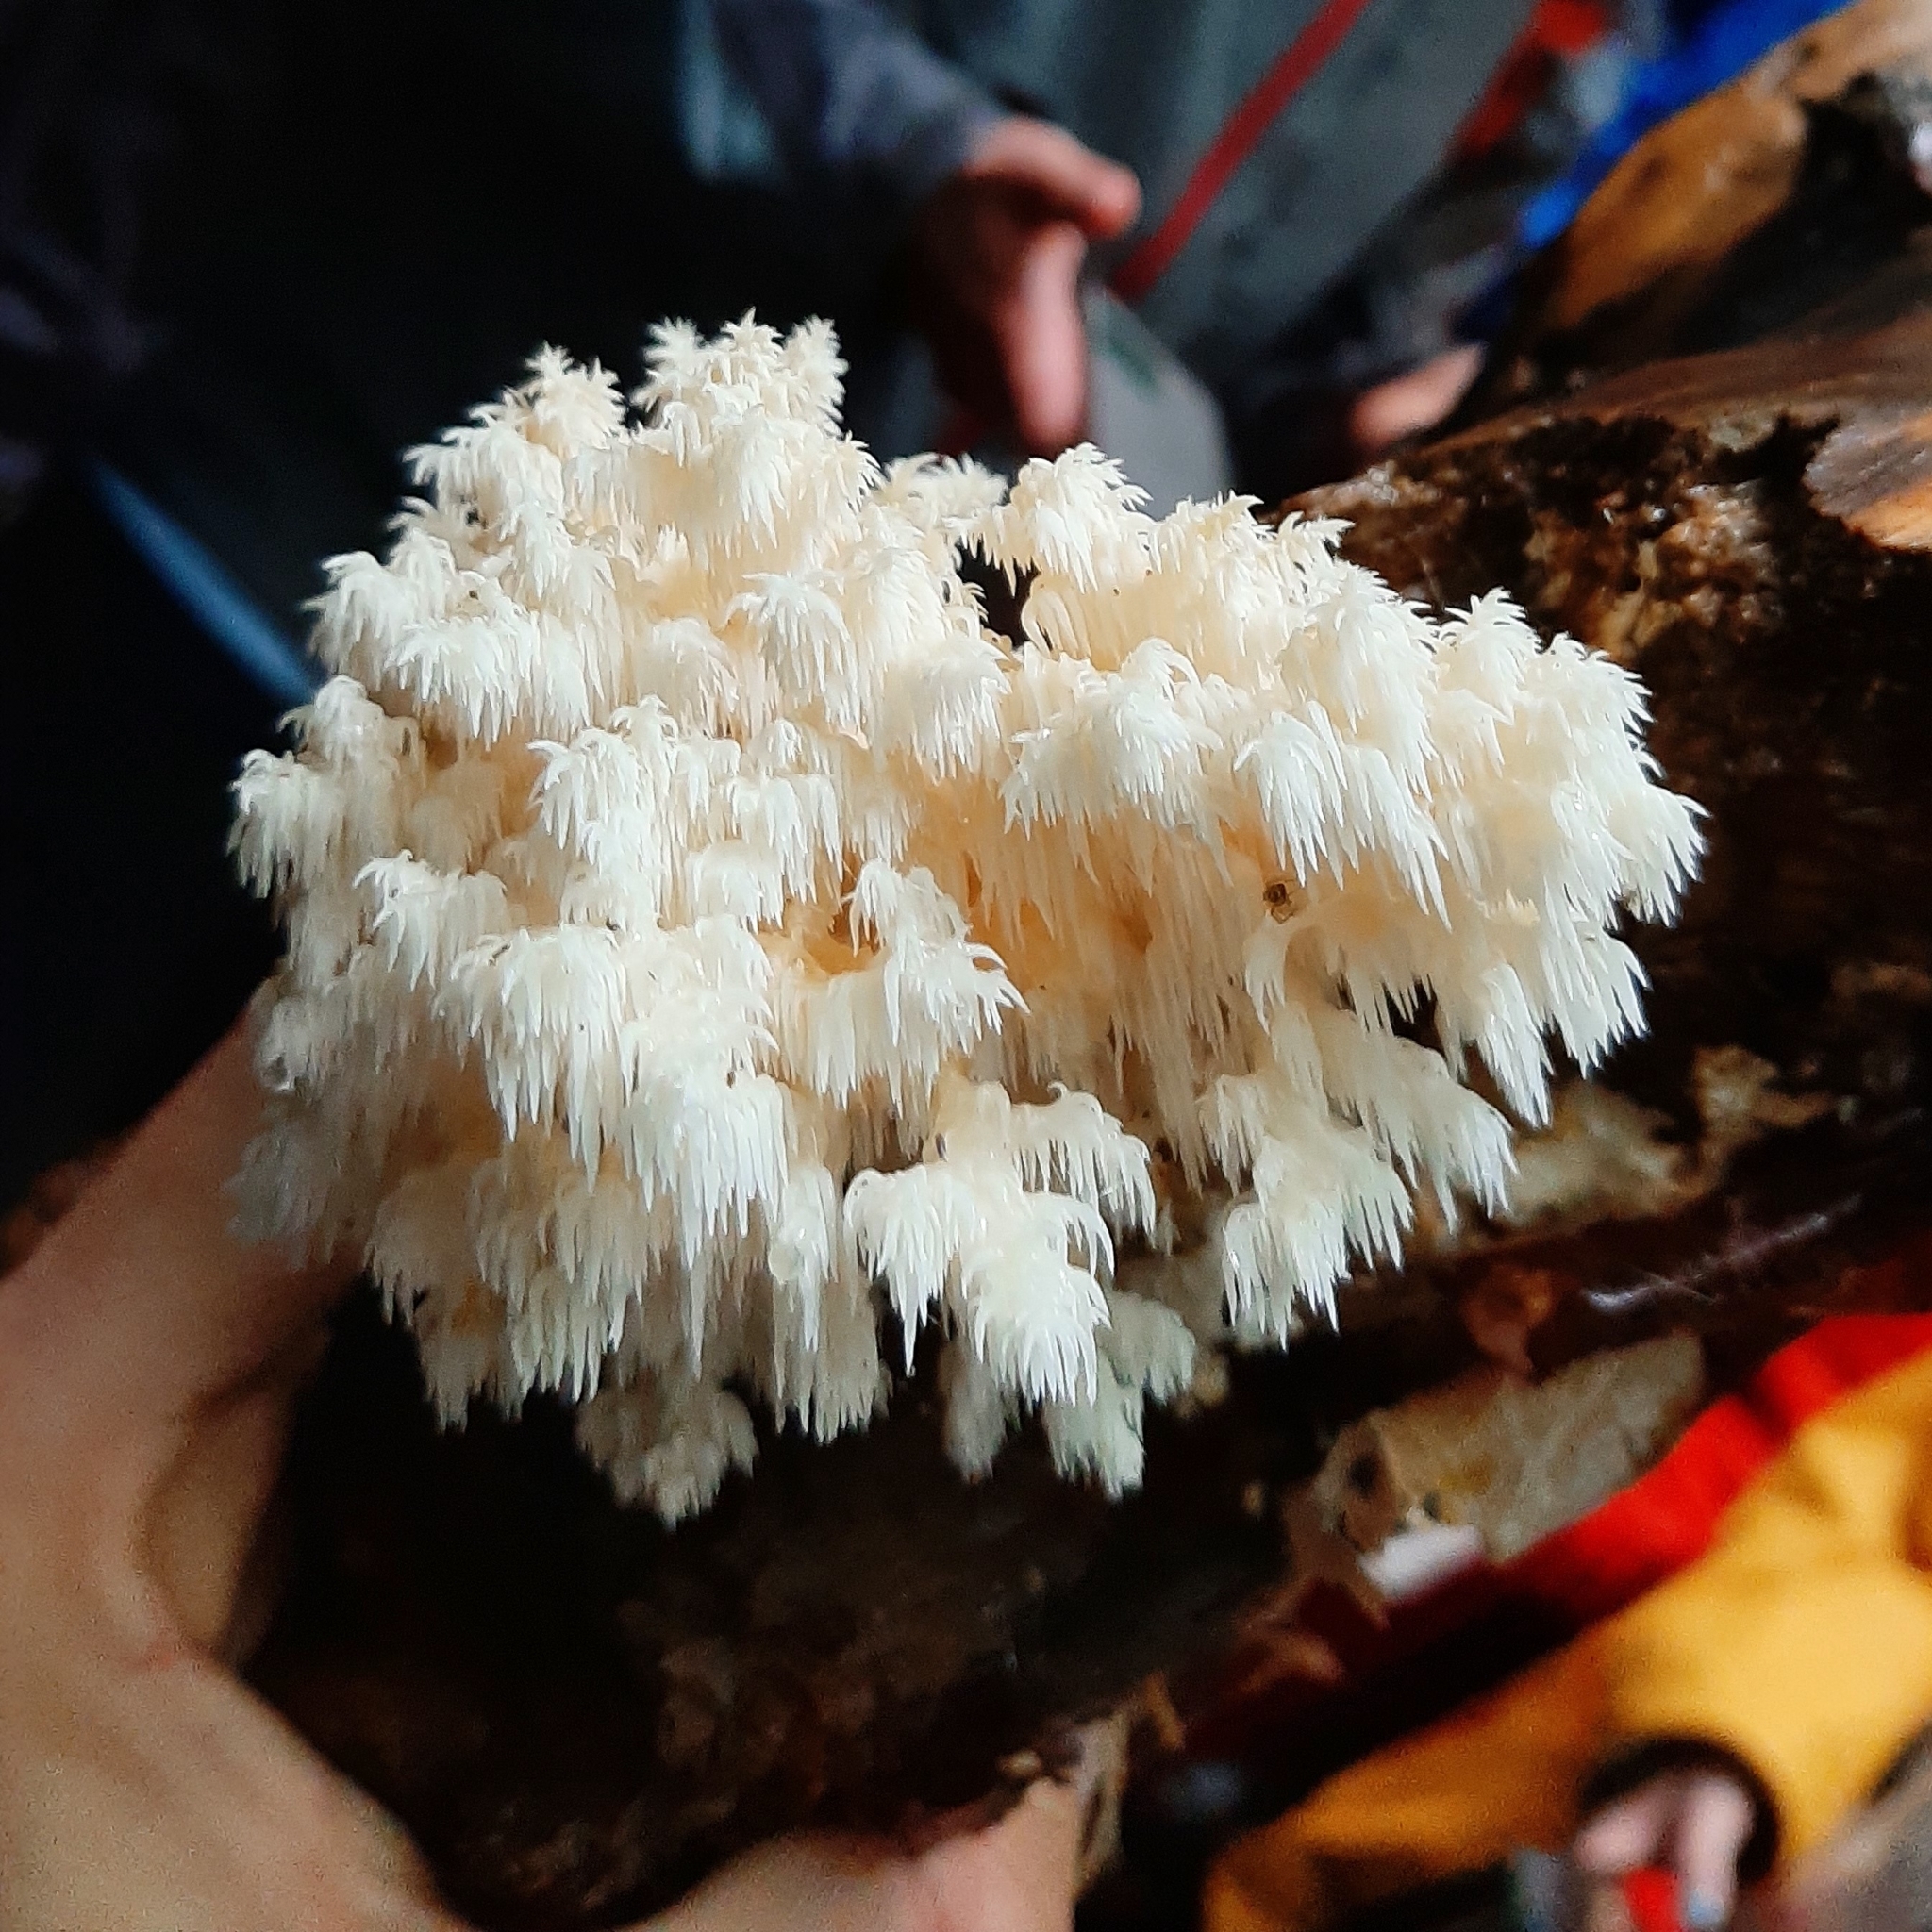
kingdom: Fungi
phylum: Basidiomycota
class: Agaricomycetes
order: Russulales
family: Hericiaceae
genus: Hericium
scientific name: Hericium coralloides
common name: Coral tooth
